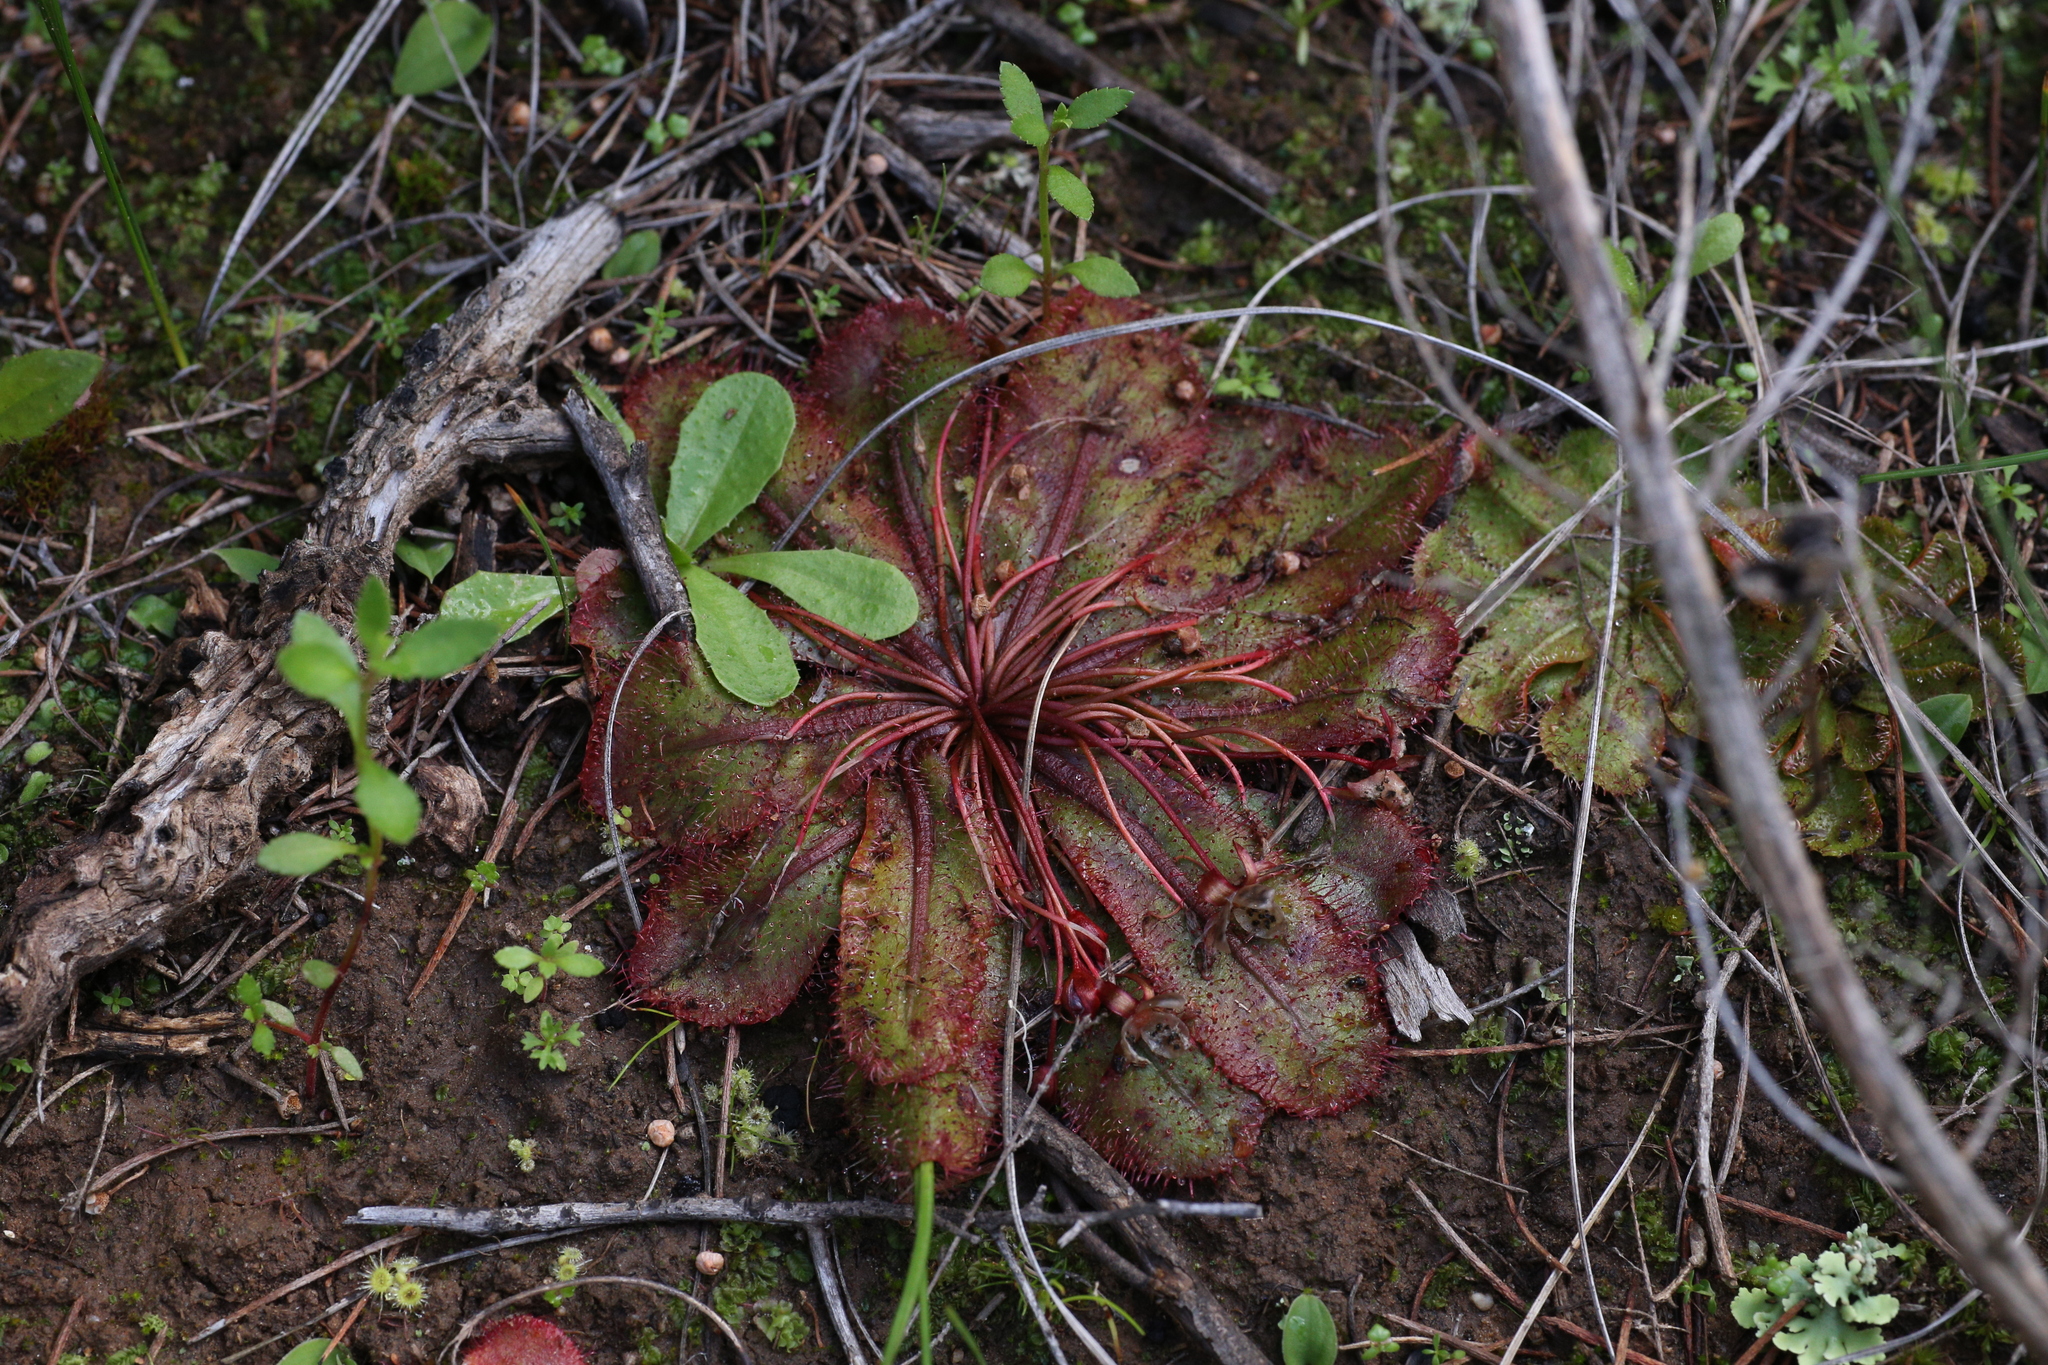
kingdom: Plantae
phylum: Tracheophyta
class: Magnoliopsida
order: Caryophyllales
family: Droseraceae
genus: Drosera
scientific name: Drosera bulbosa
